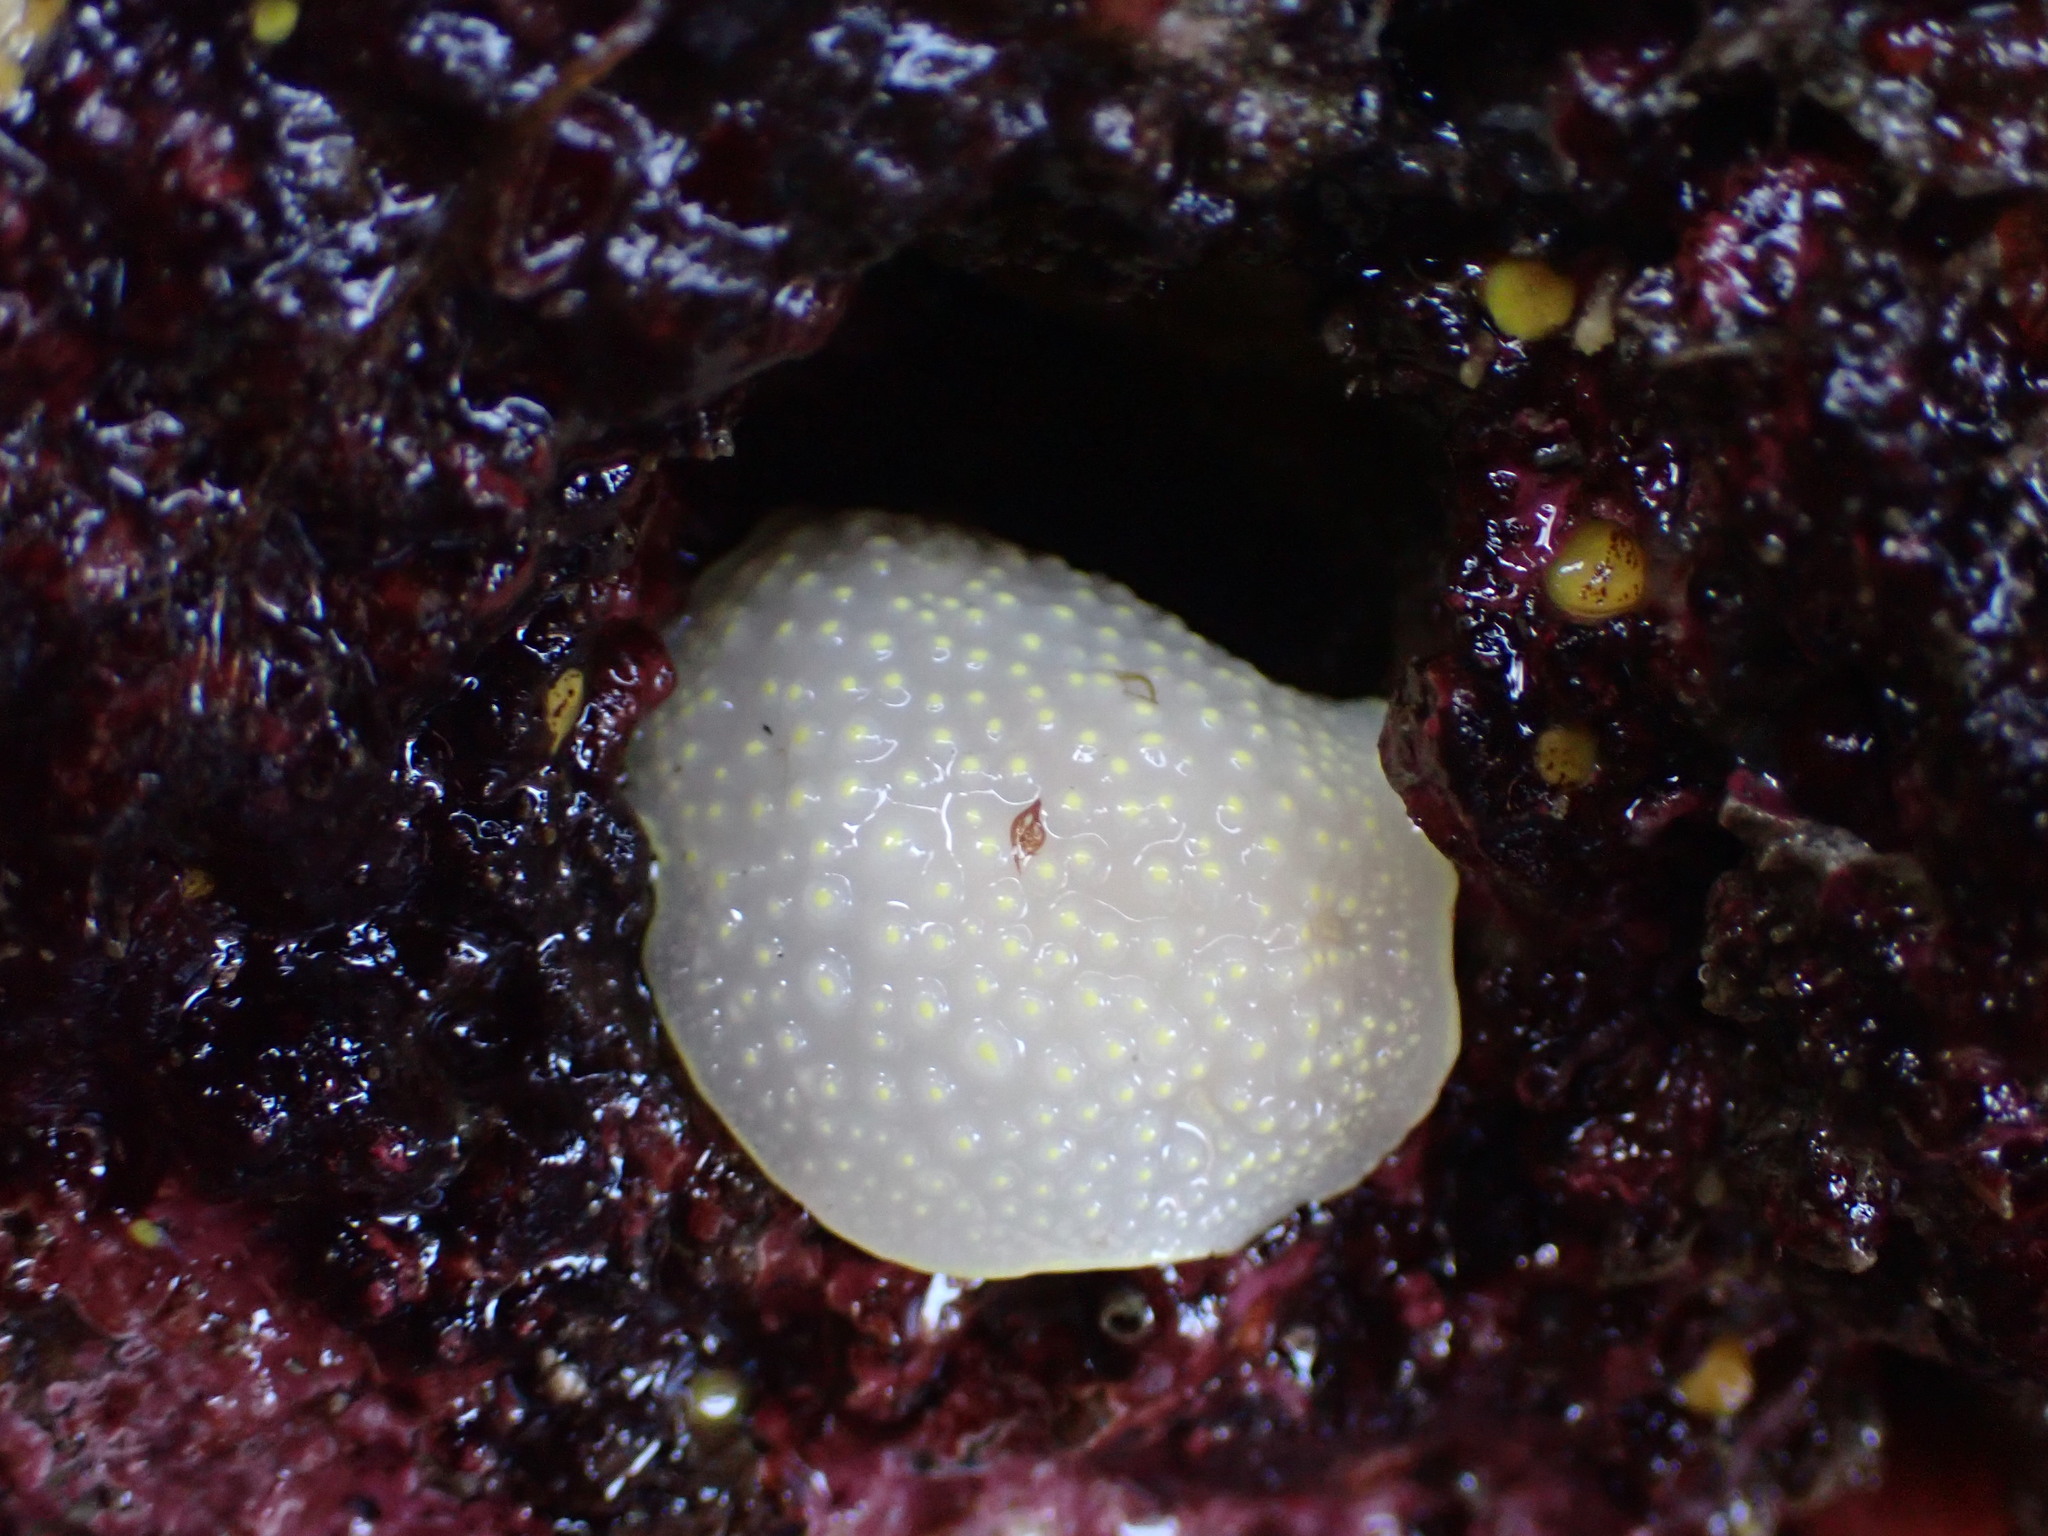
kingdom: Animalia
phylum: Mollusca
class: Gastropoda
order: Nudibranchia
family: Cadlinidae
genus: Cadlina
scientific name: Cadlina luteomarginata
